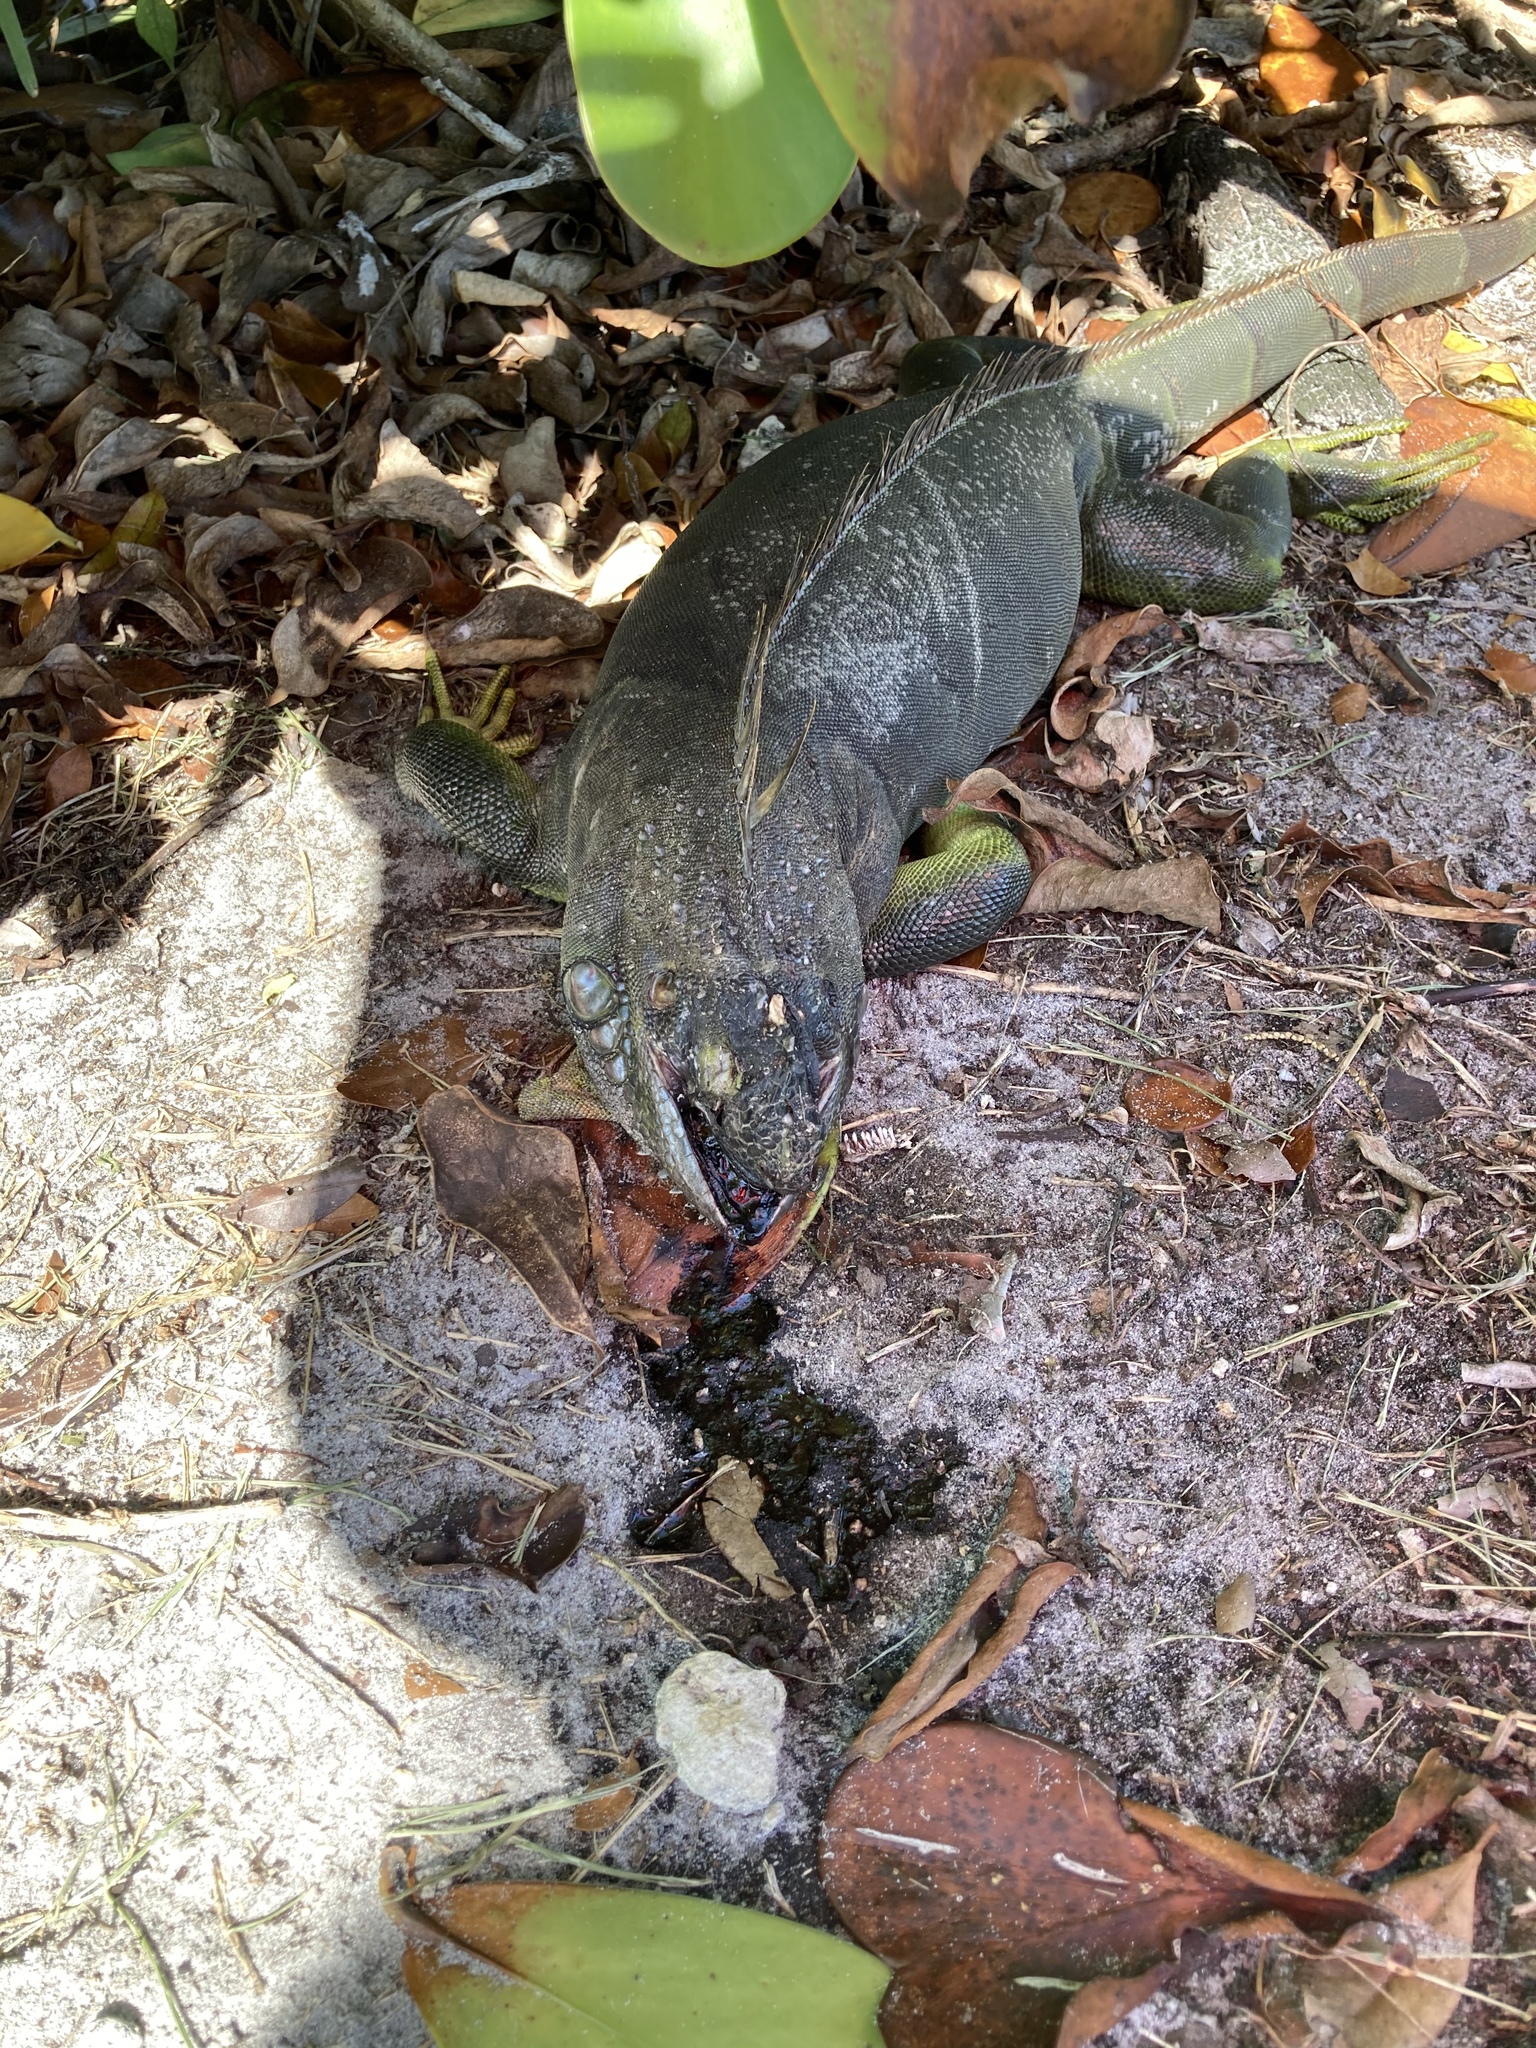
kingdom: Animalia
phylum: Chordata
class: Squamata
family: Iguanidae
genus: Iguana
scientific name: Iguana iguana
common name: Green iguana
